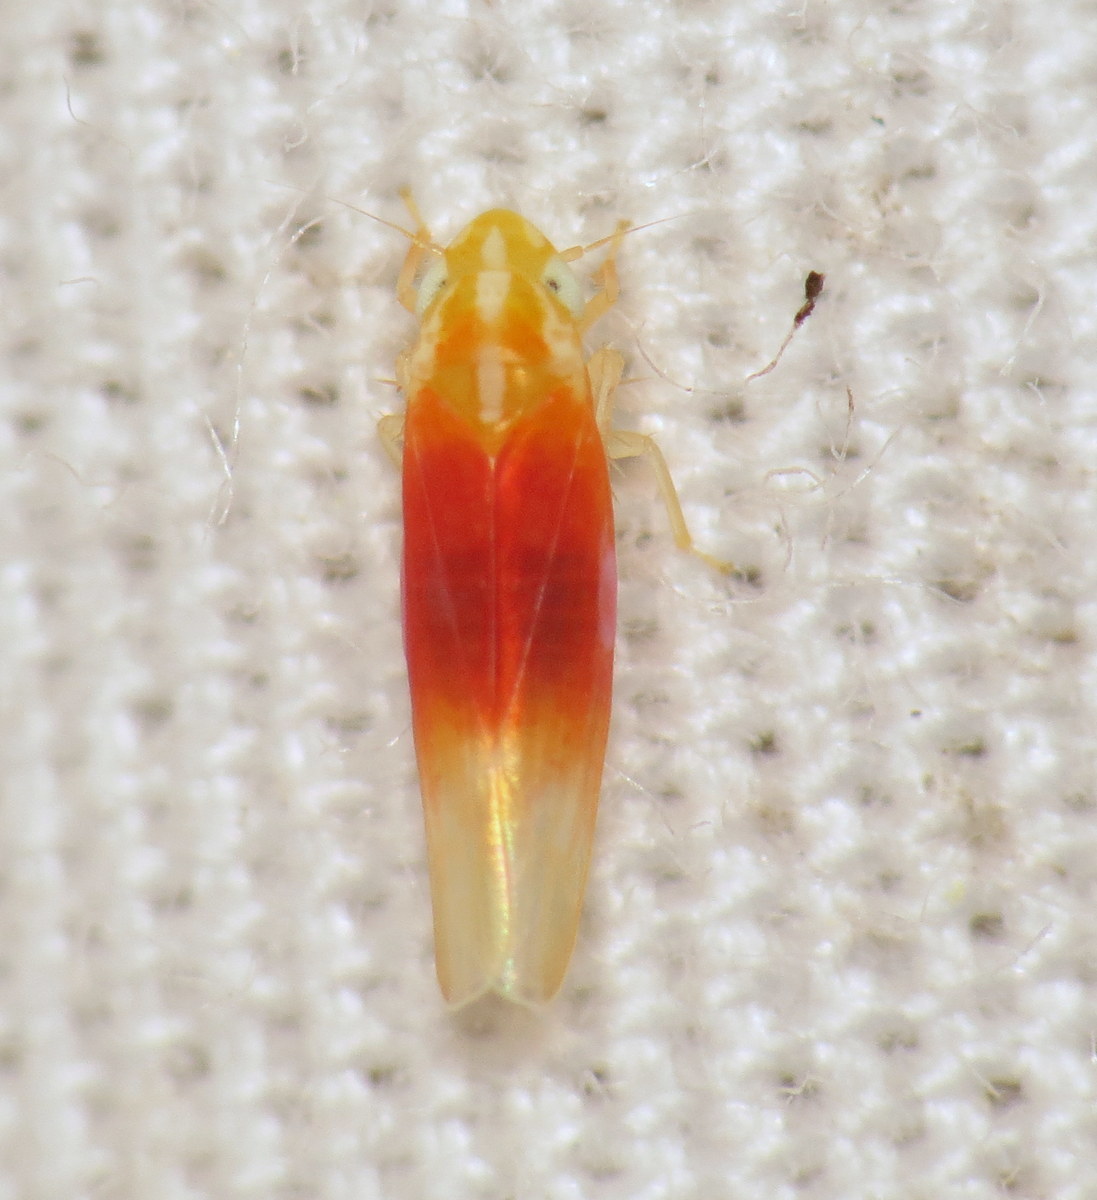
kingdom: Animalia
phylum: Arthropoda
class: Insecta
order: Hemiptera
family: Cicadellidae
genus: Erythridula
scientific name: Erythridula amabilis
